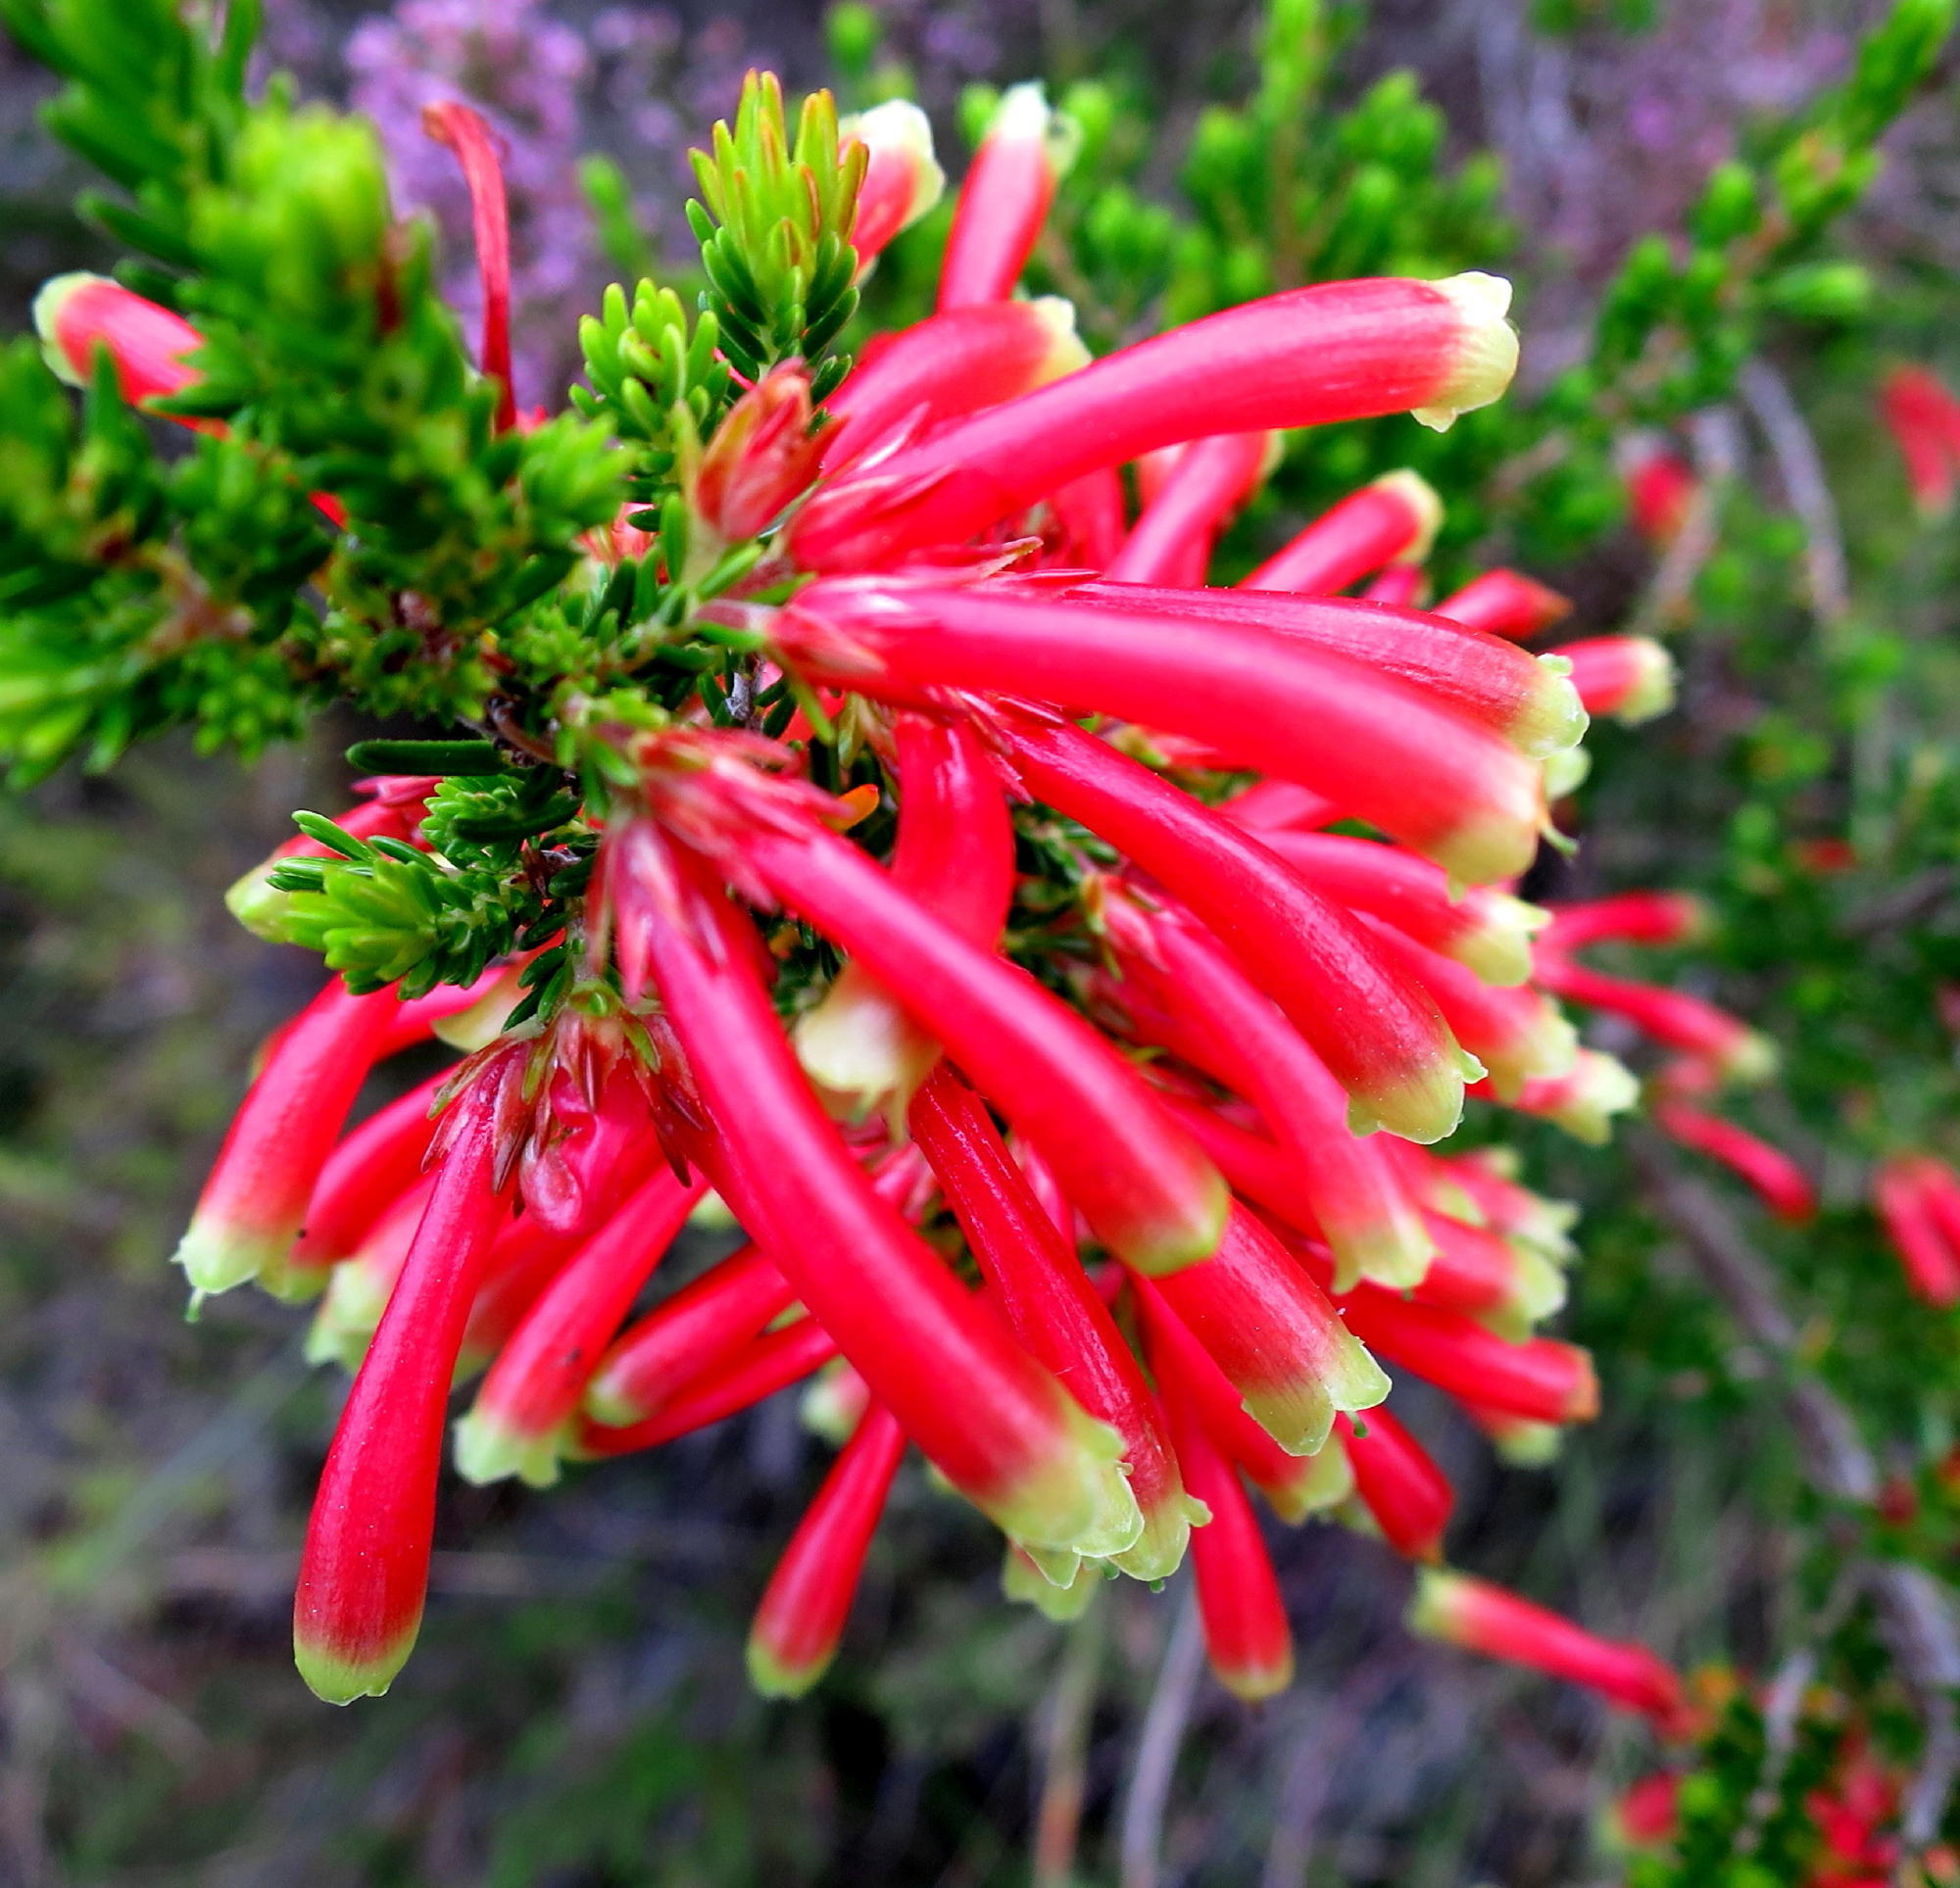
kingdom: Plantae
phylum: Tracheophyta
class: Magnoliopsida
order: Ericales
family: Ericaceae
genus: Erica
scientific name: Erica discolor
